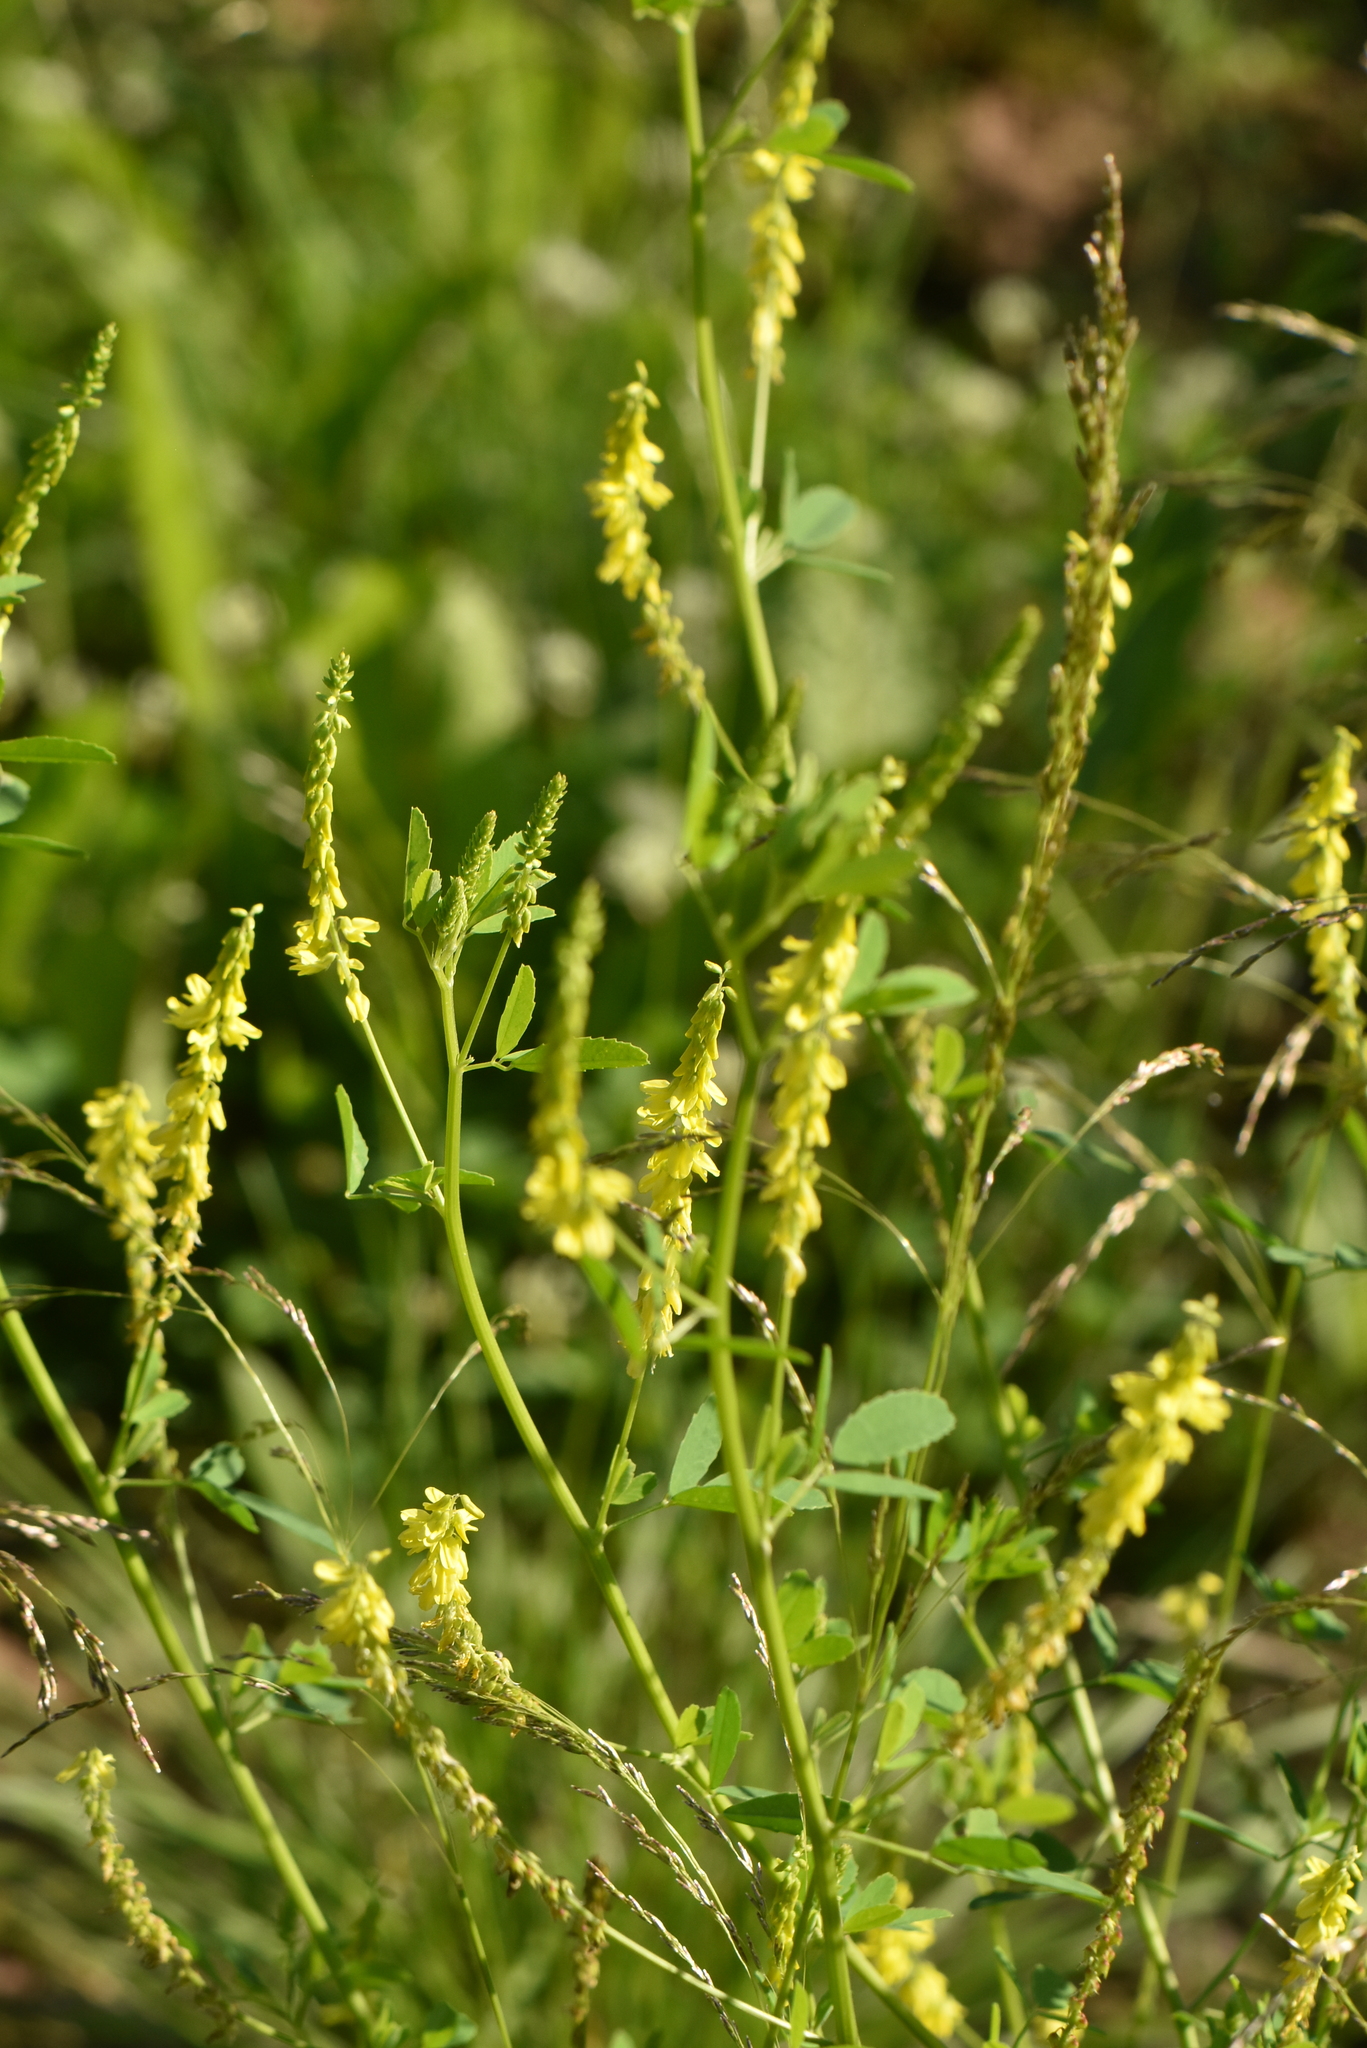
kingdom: Plantae
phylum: Tracheophyta
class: Magnoliopsida
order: Fabales
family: Fabaceae
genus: Melilotus
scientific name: Melilotus officinalis
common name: Sweetclover
